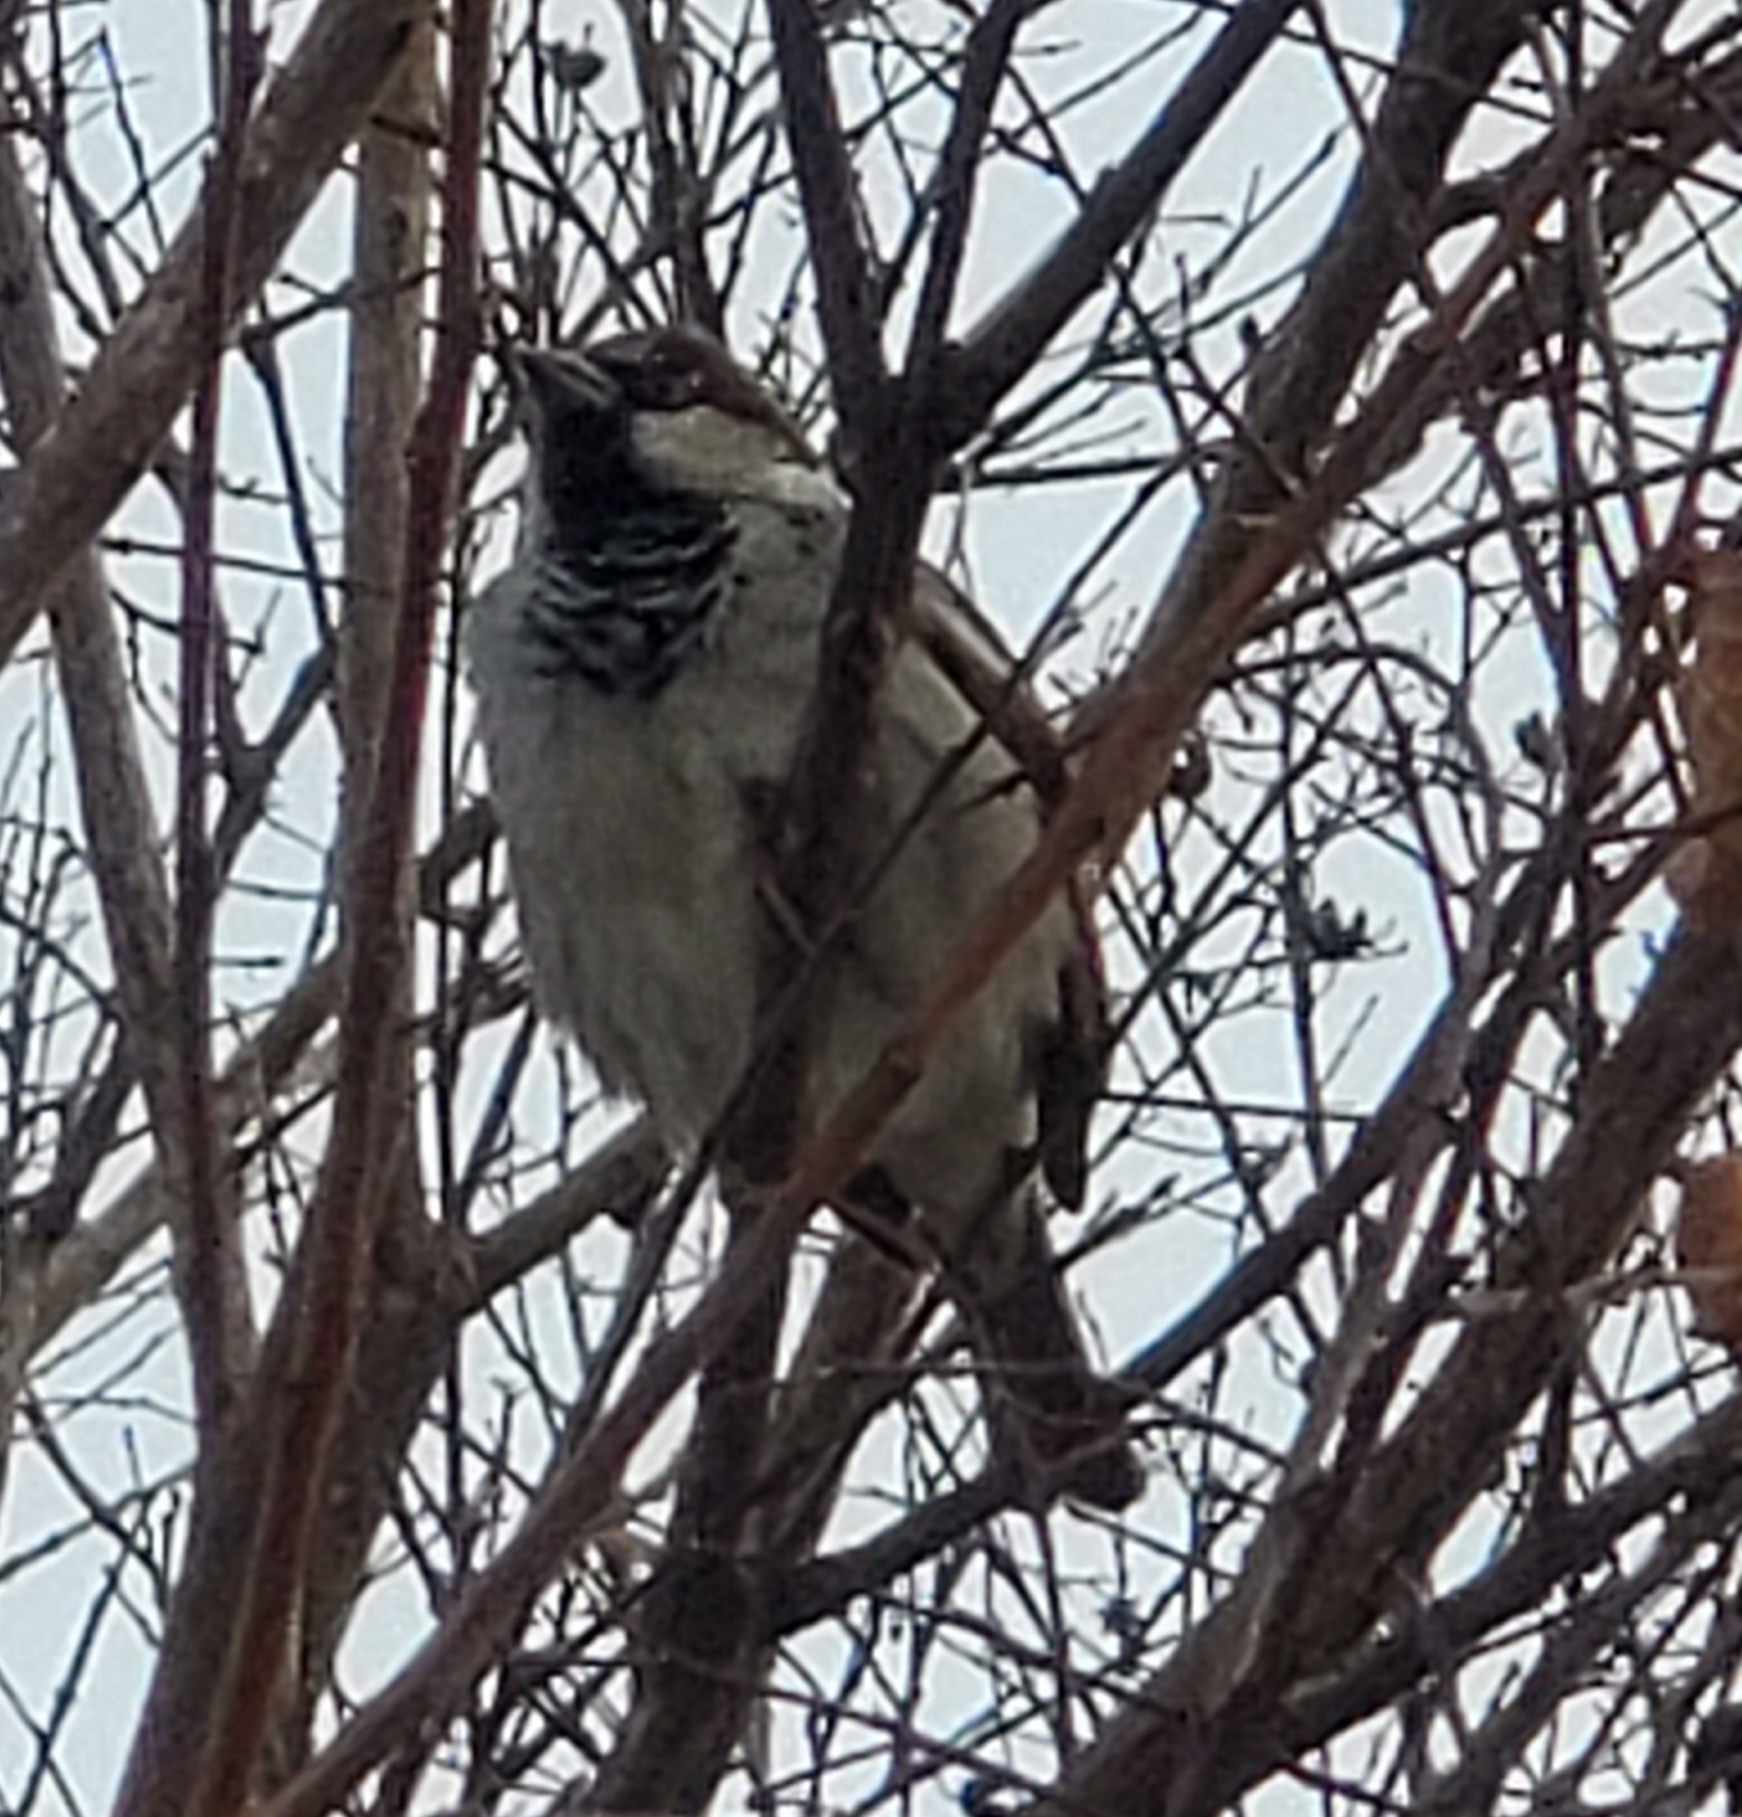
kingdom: Animalia
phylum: Chordata
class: Aves
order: Passeriformes
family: Passeridae
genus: Passer
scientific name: Passer domesticus
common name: House sparrow
